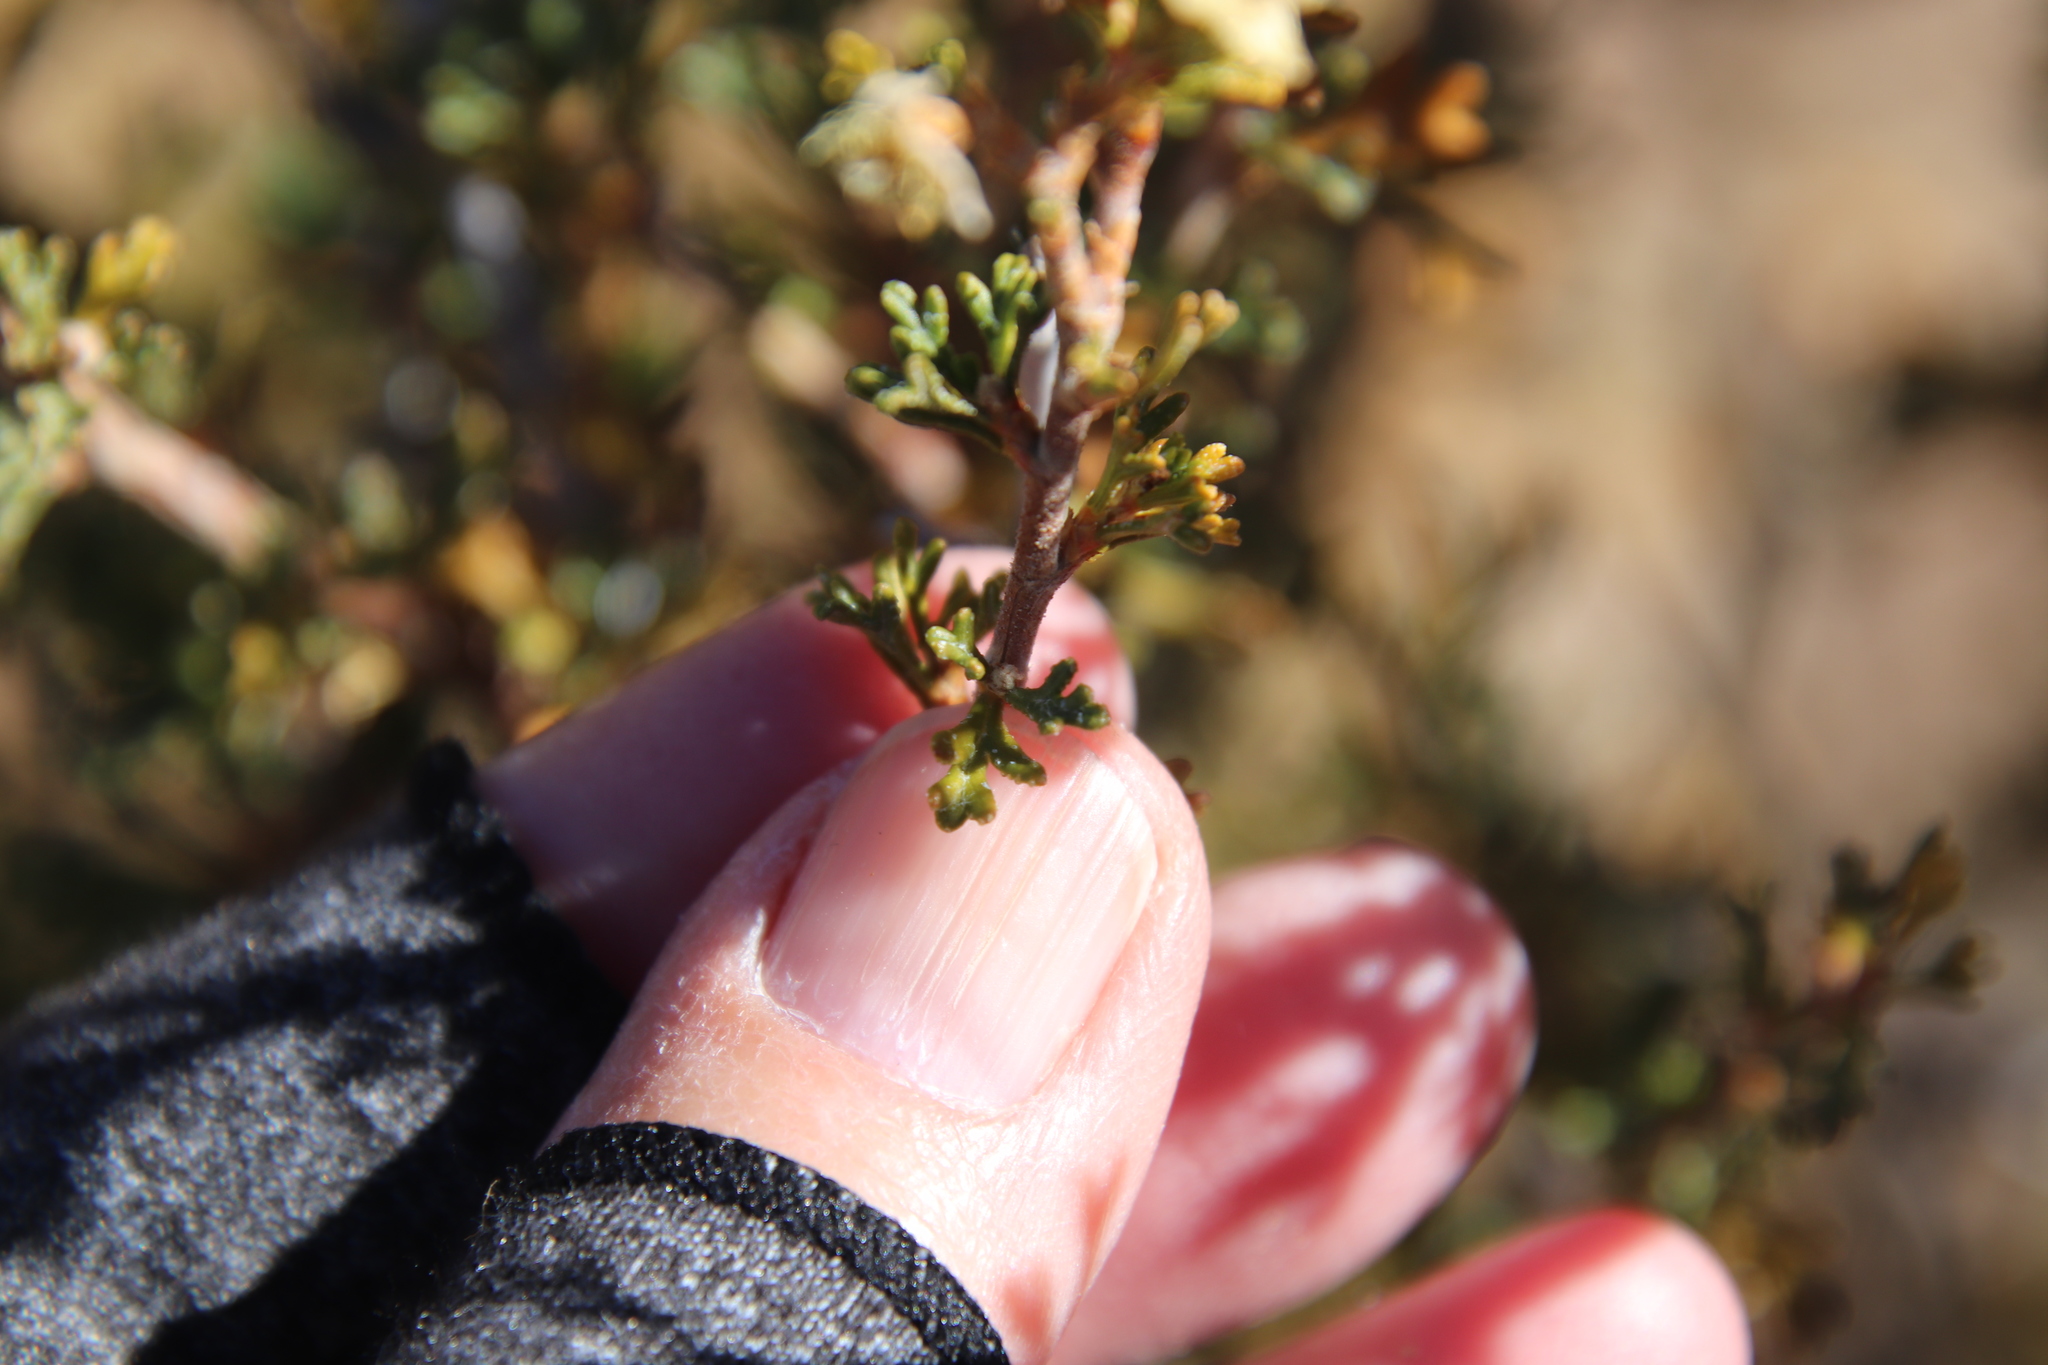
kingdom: Plantae
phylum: Tracheophyta
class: Magnoliopsida
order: Rosales
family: Rosaceae
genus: Purshia
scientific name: Purshia stansburiana
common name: Stansbury's cliffrose
